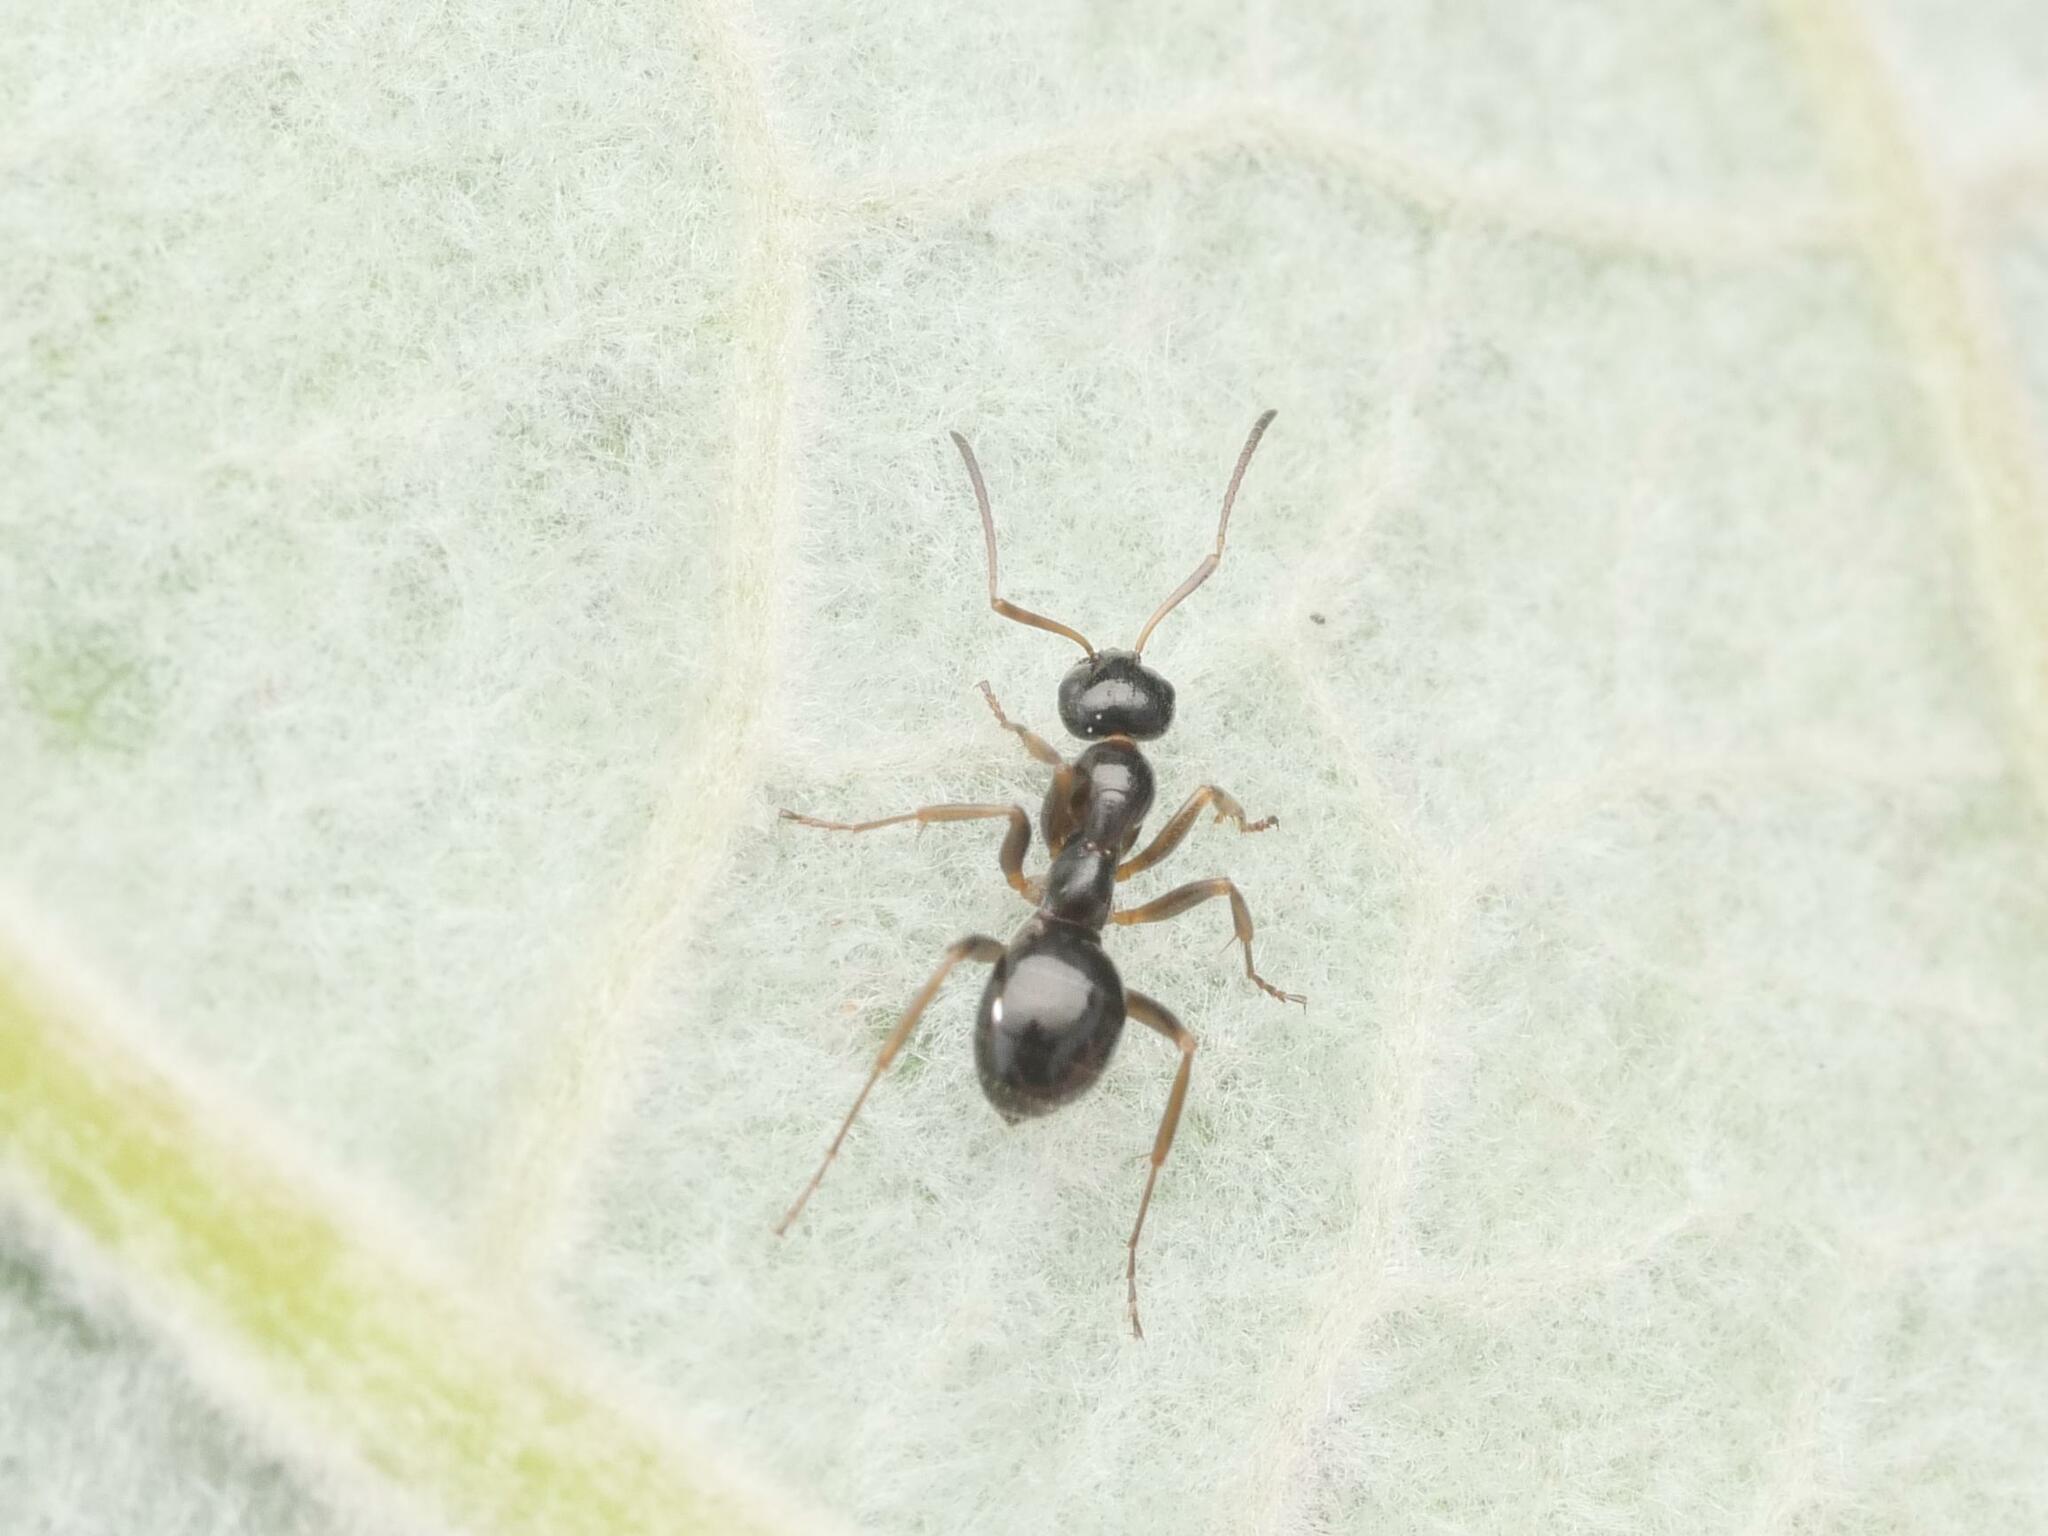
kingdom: Animalia
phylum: Arthropoda
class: Insecta
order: Hymenoptera
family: Formicidae
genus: Formica
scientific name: Formica neogagates
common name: New world black ant
